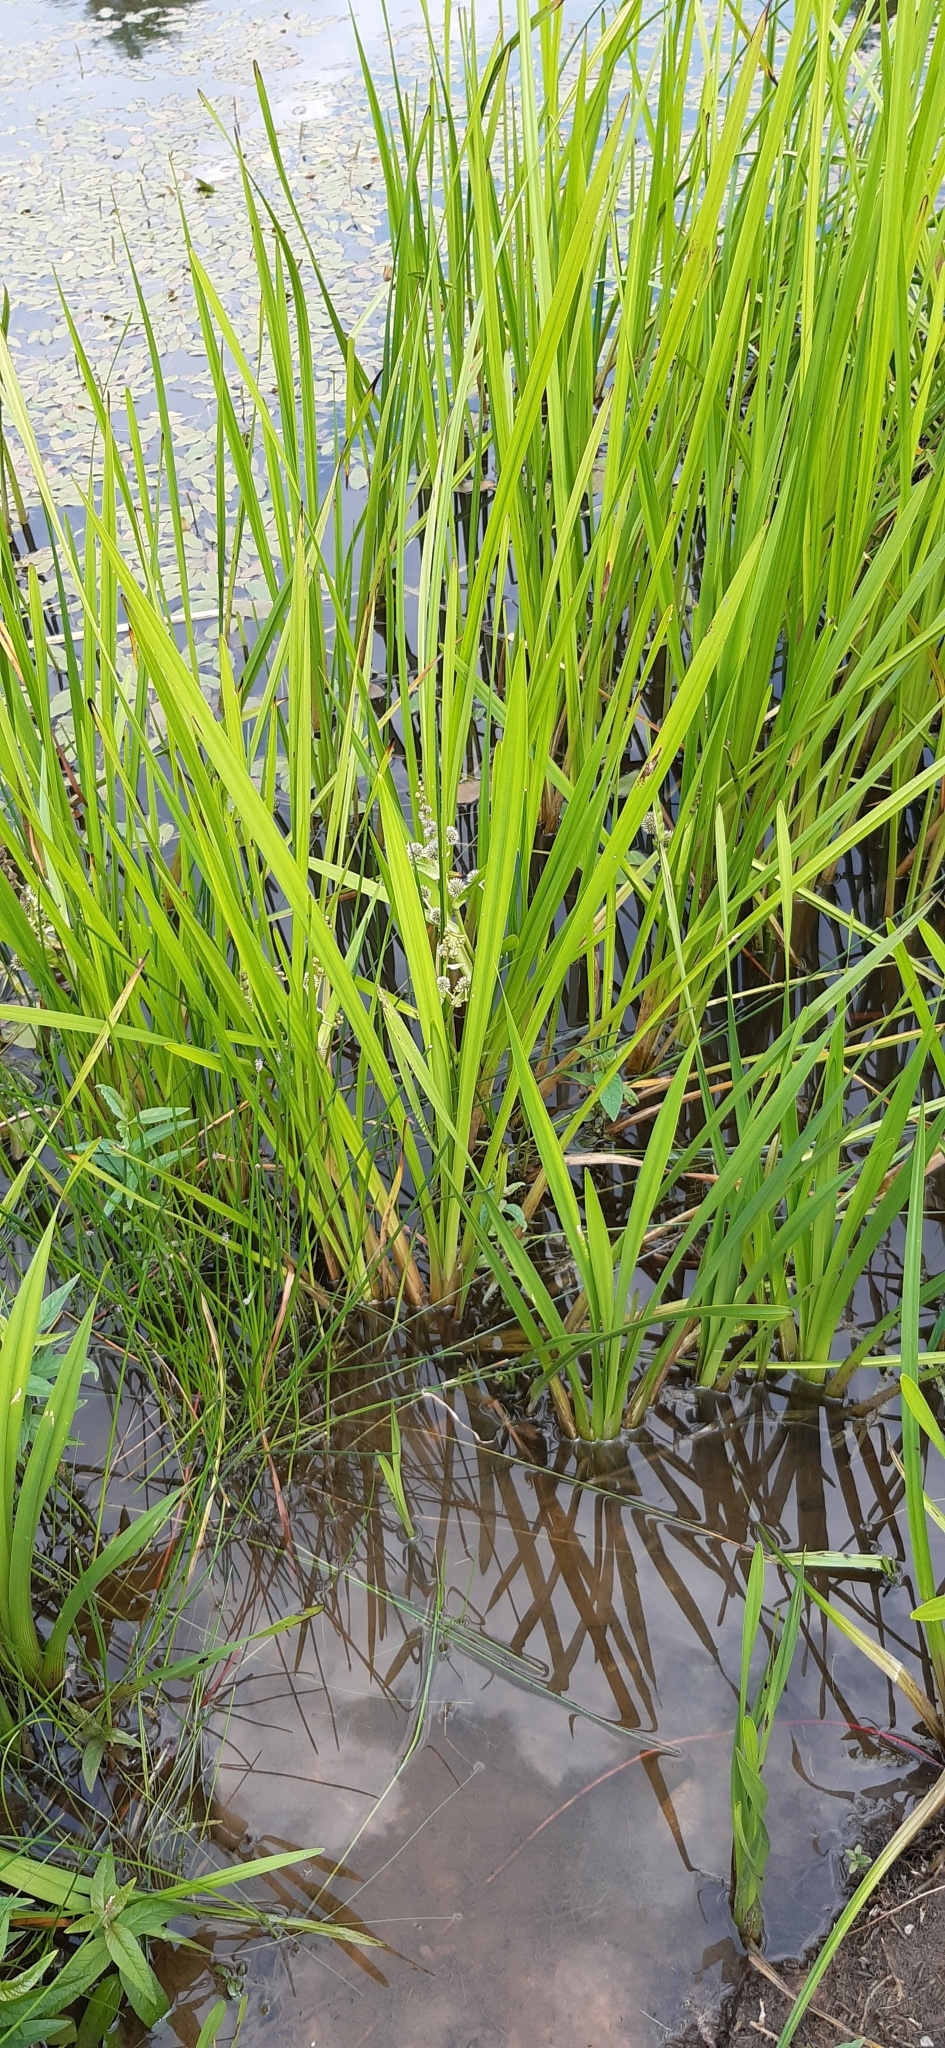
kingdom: Plantae
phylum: Tracheophyta
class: Liliopsida
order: Poales
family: Typhaceae
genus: Sparganium
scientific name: Sparganium erectum
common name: Branched bur-reed
